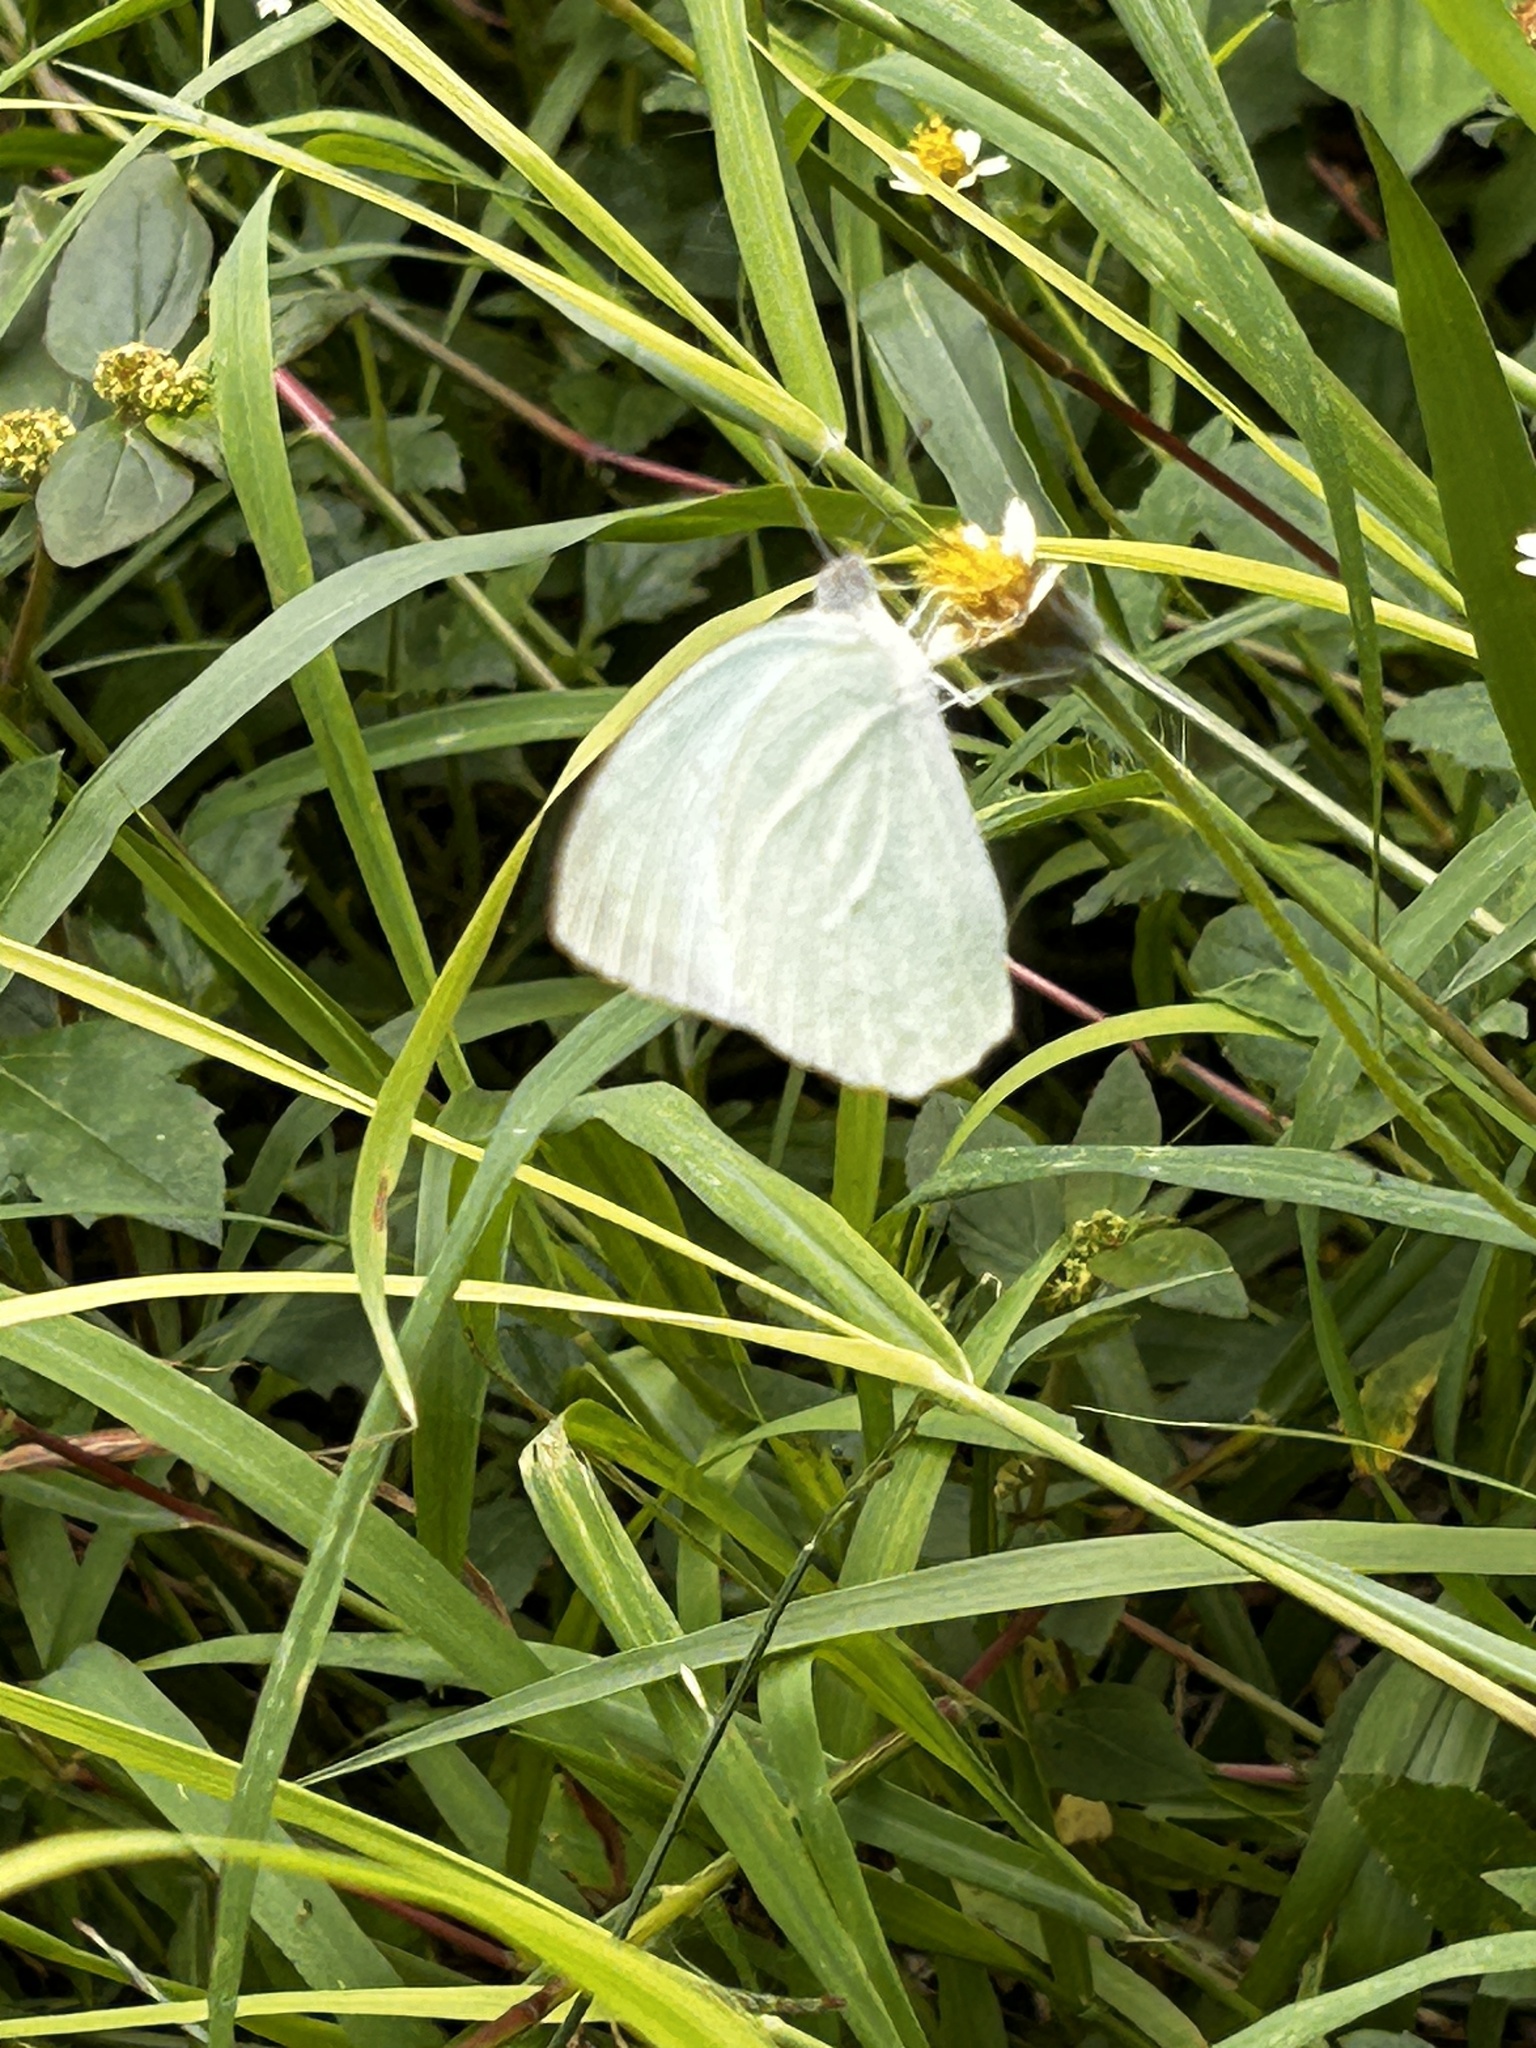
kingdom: Animalia
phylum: Arthropoda
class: Insecta
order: Lepidoptera
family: Pieridae
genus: Catopsilia
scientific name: Catopsilia pyranthe
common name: Mottled emigrant
